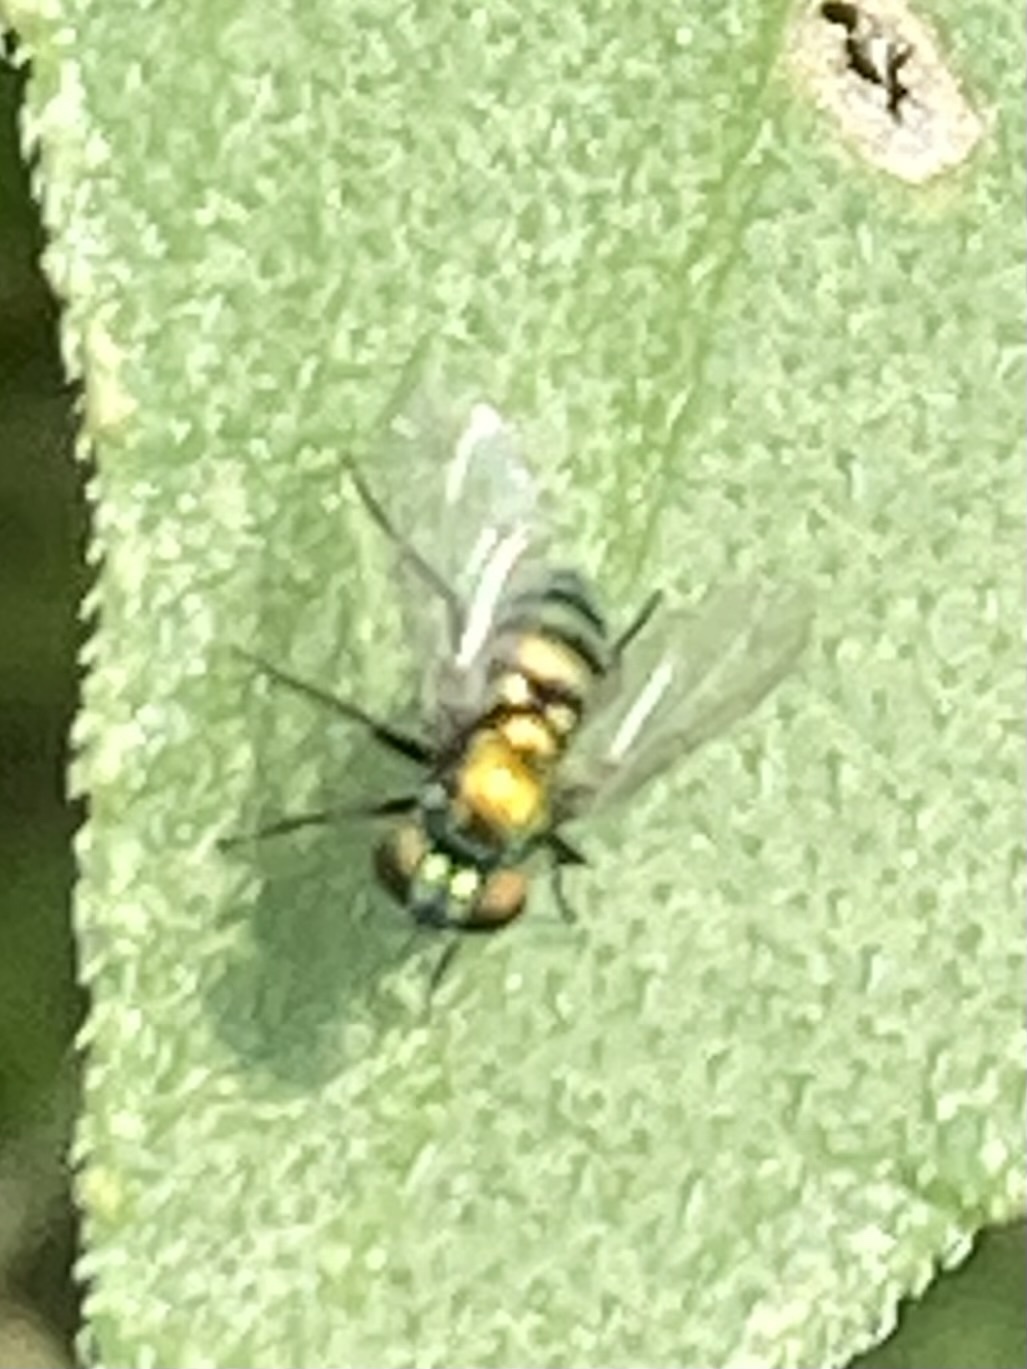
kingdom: Animalia
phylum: Arthropoda
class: Insecta
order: Diptera
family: Dolichopodidae
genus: Condylostylus
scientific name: Condylostylus longicornis
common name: Long-legged fly
